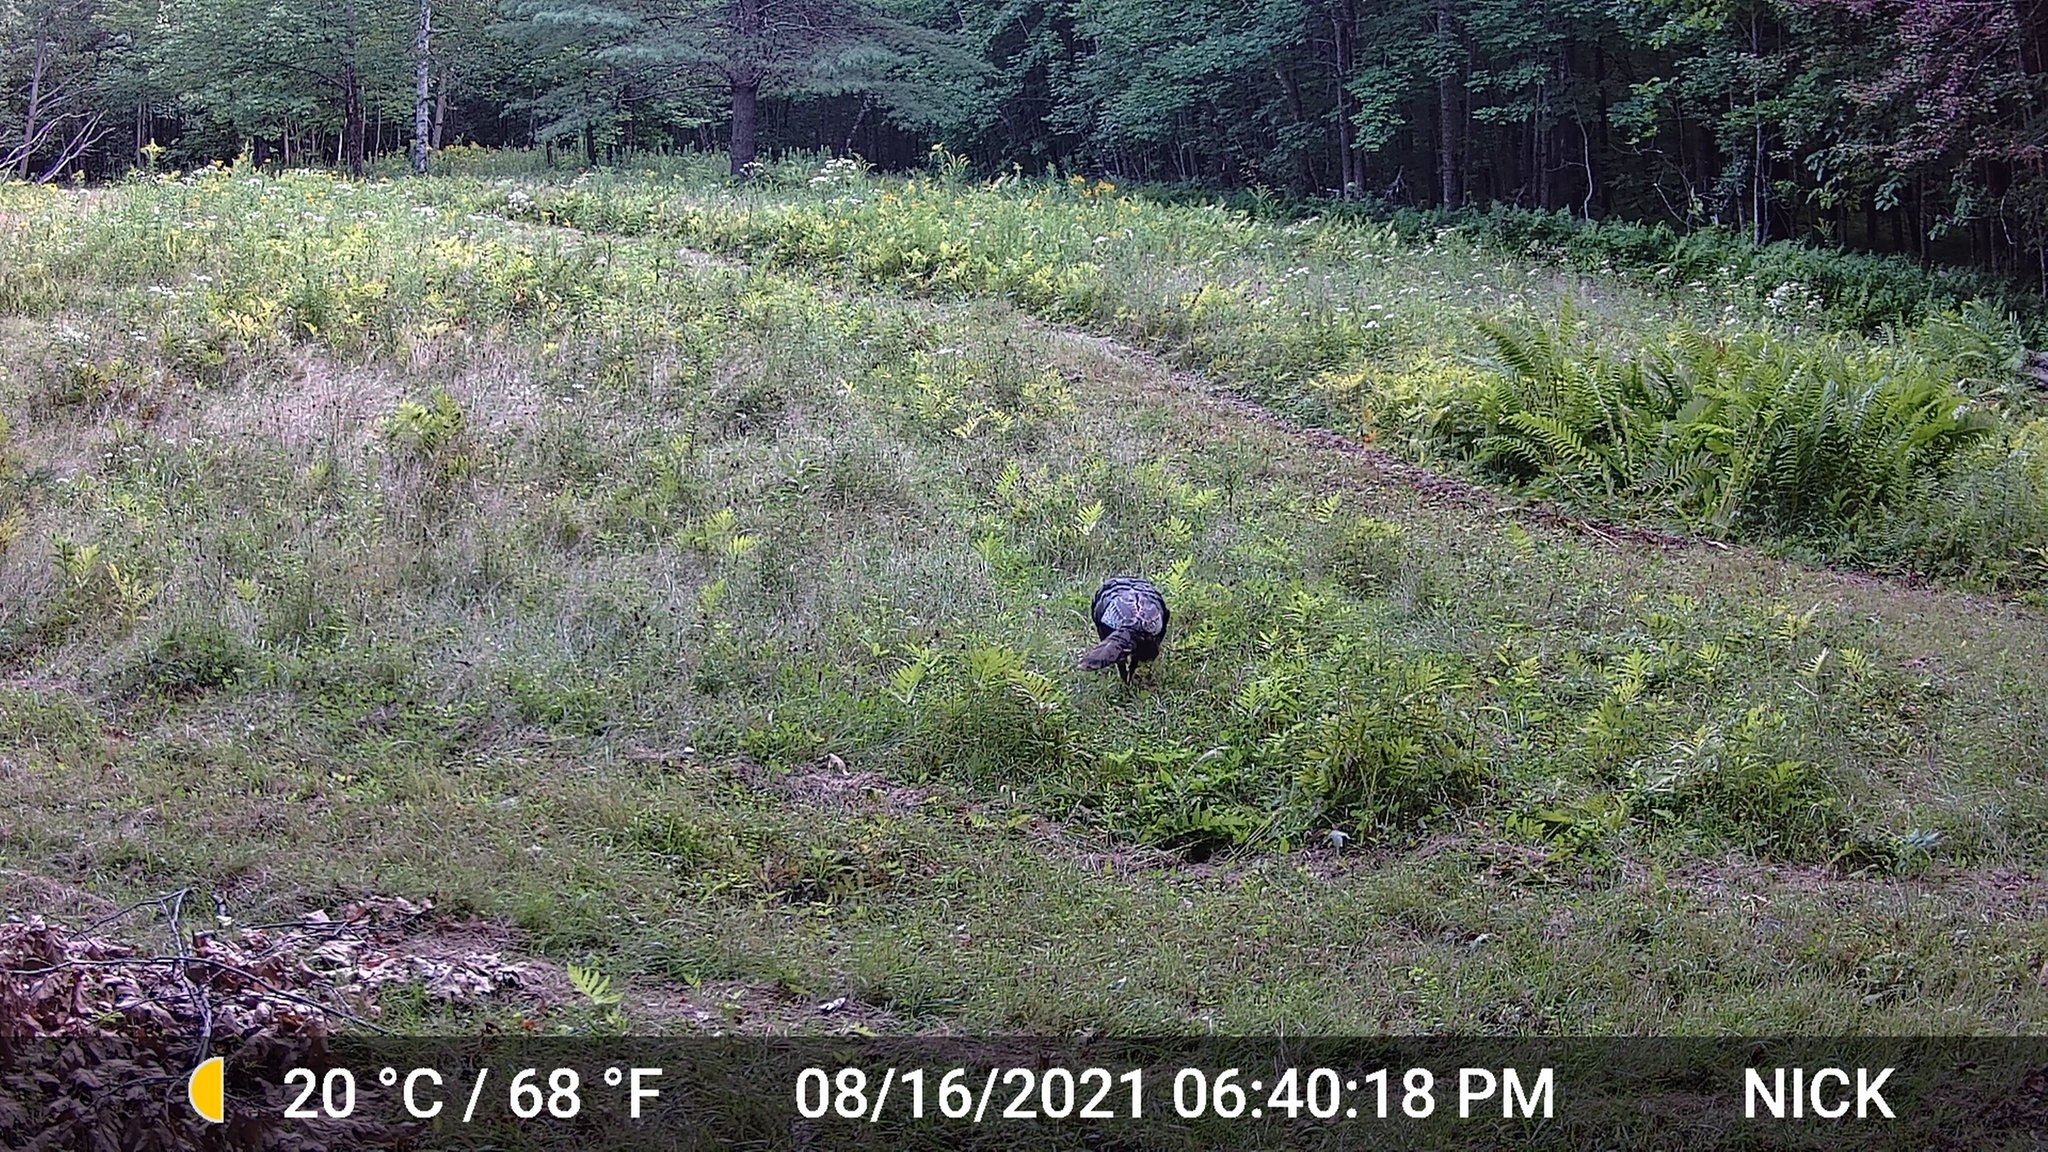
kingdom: Animalia
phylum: Chordata
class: Aves
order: Galliformes
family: Phasianidae
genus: Meleagris
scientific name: Meleagris gallopavo
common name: Wild turkey
